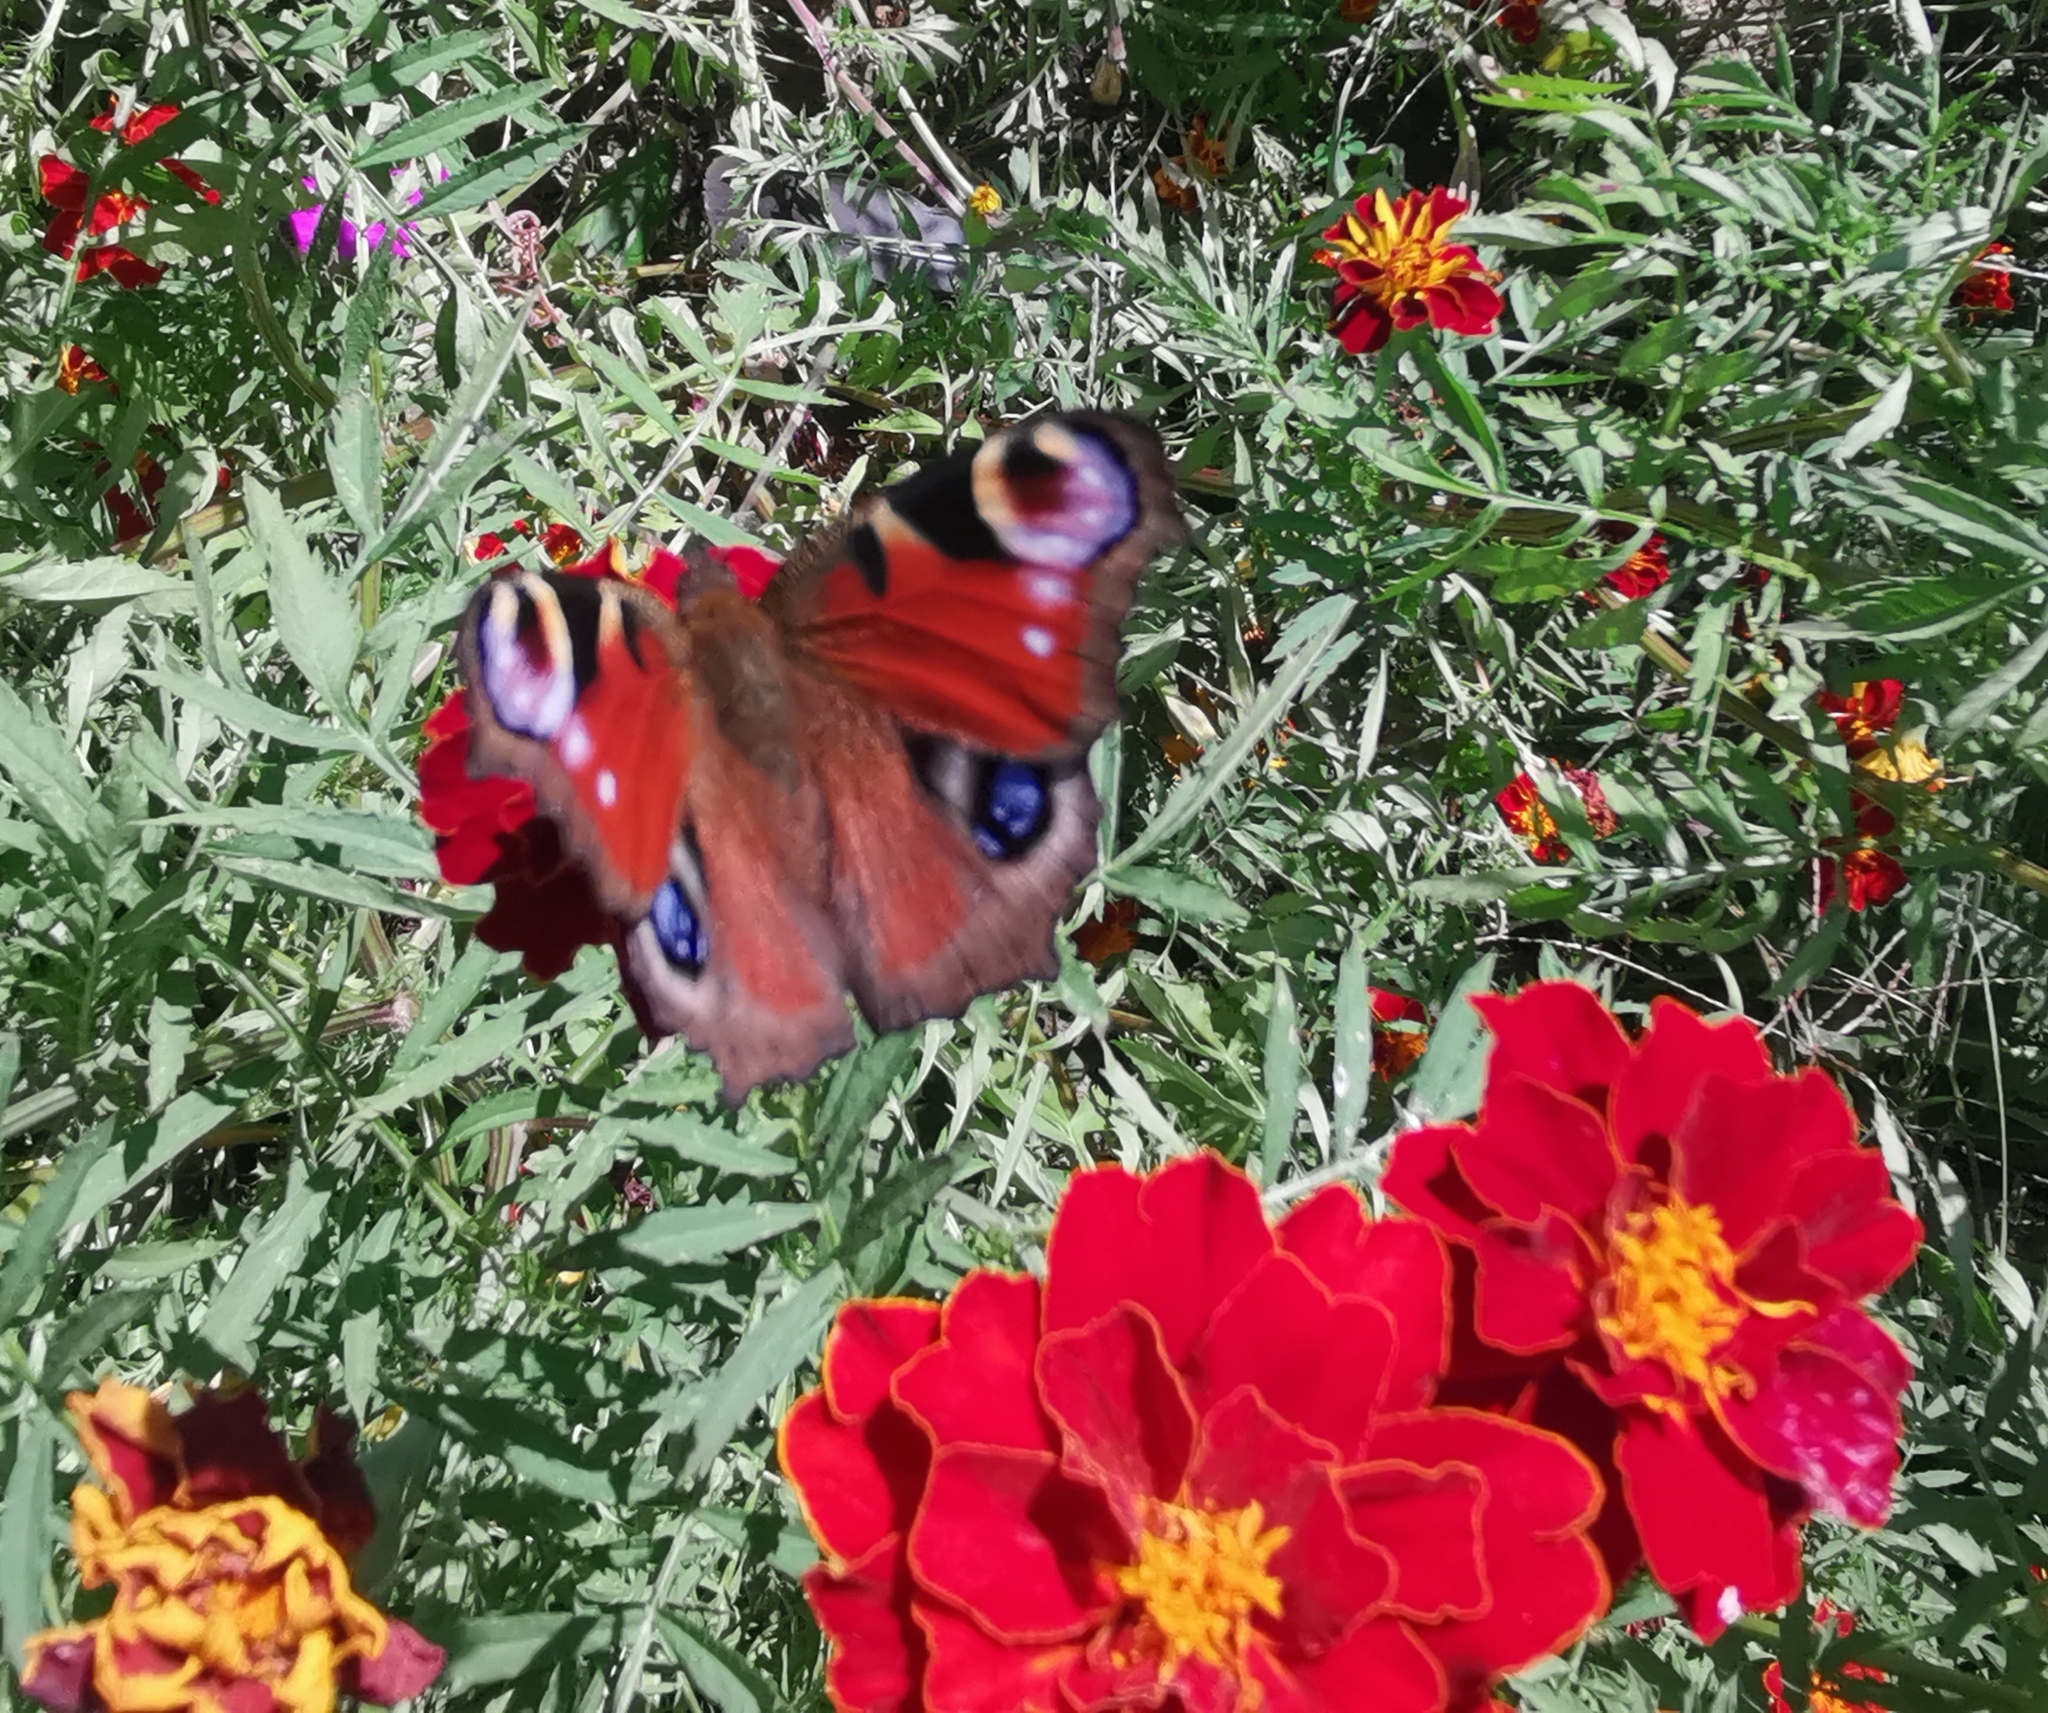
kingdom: Animalia
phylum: Arthropoda
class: Insecta
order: Lepidoptera
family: Nymphalidae
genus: Aglais
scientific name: Aglais io
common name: Peacock
